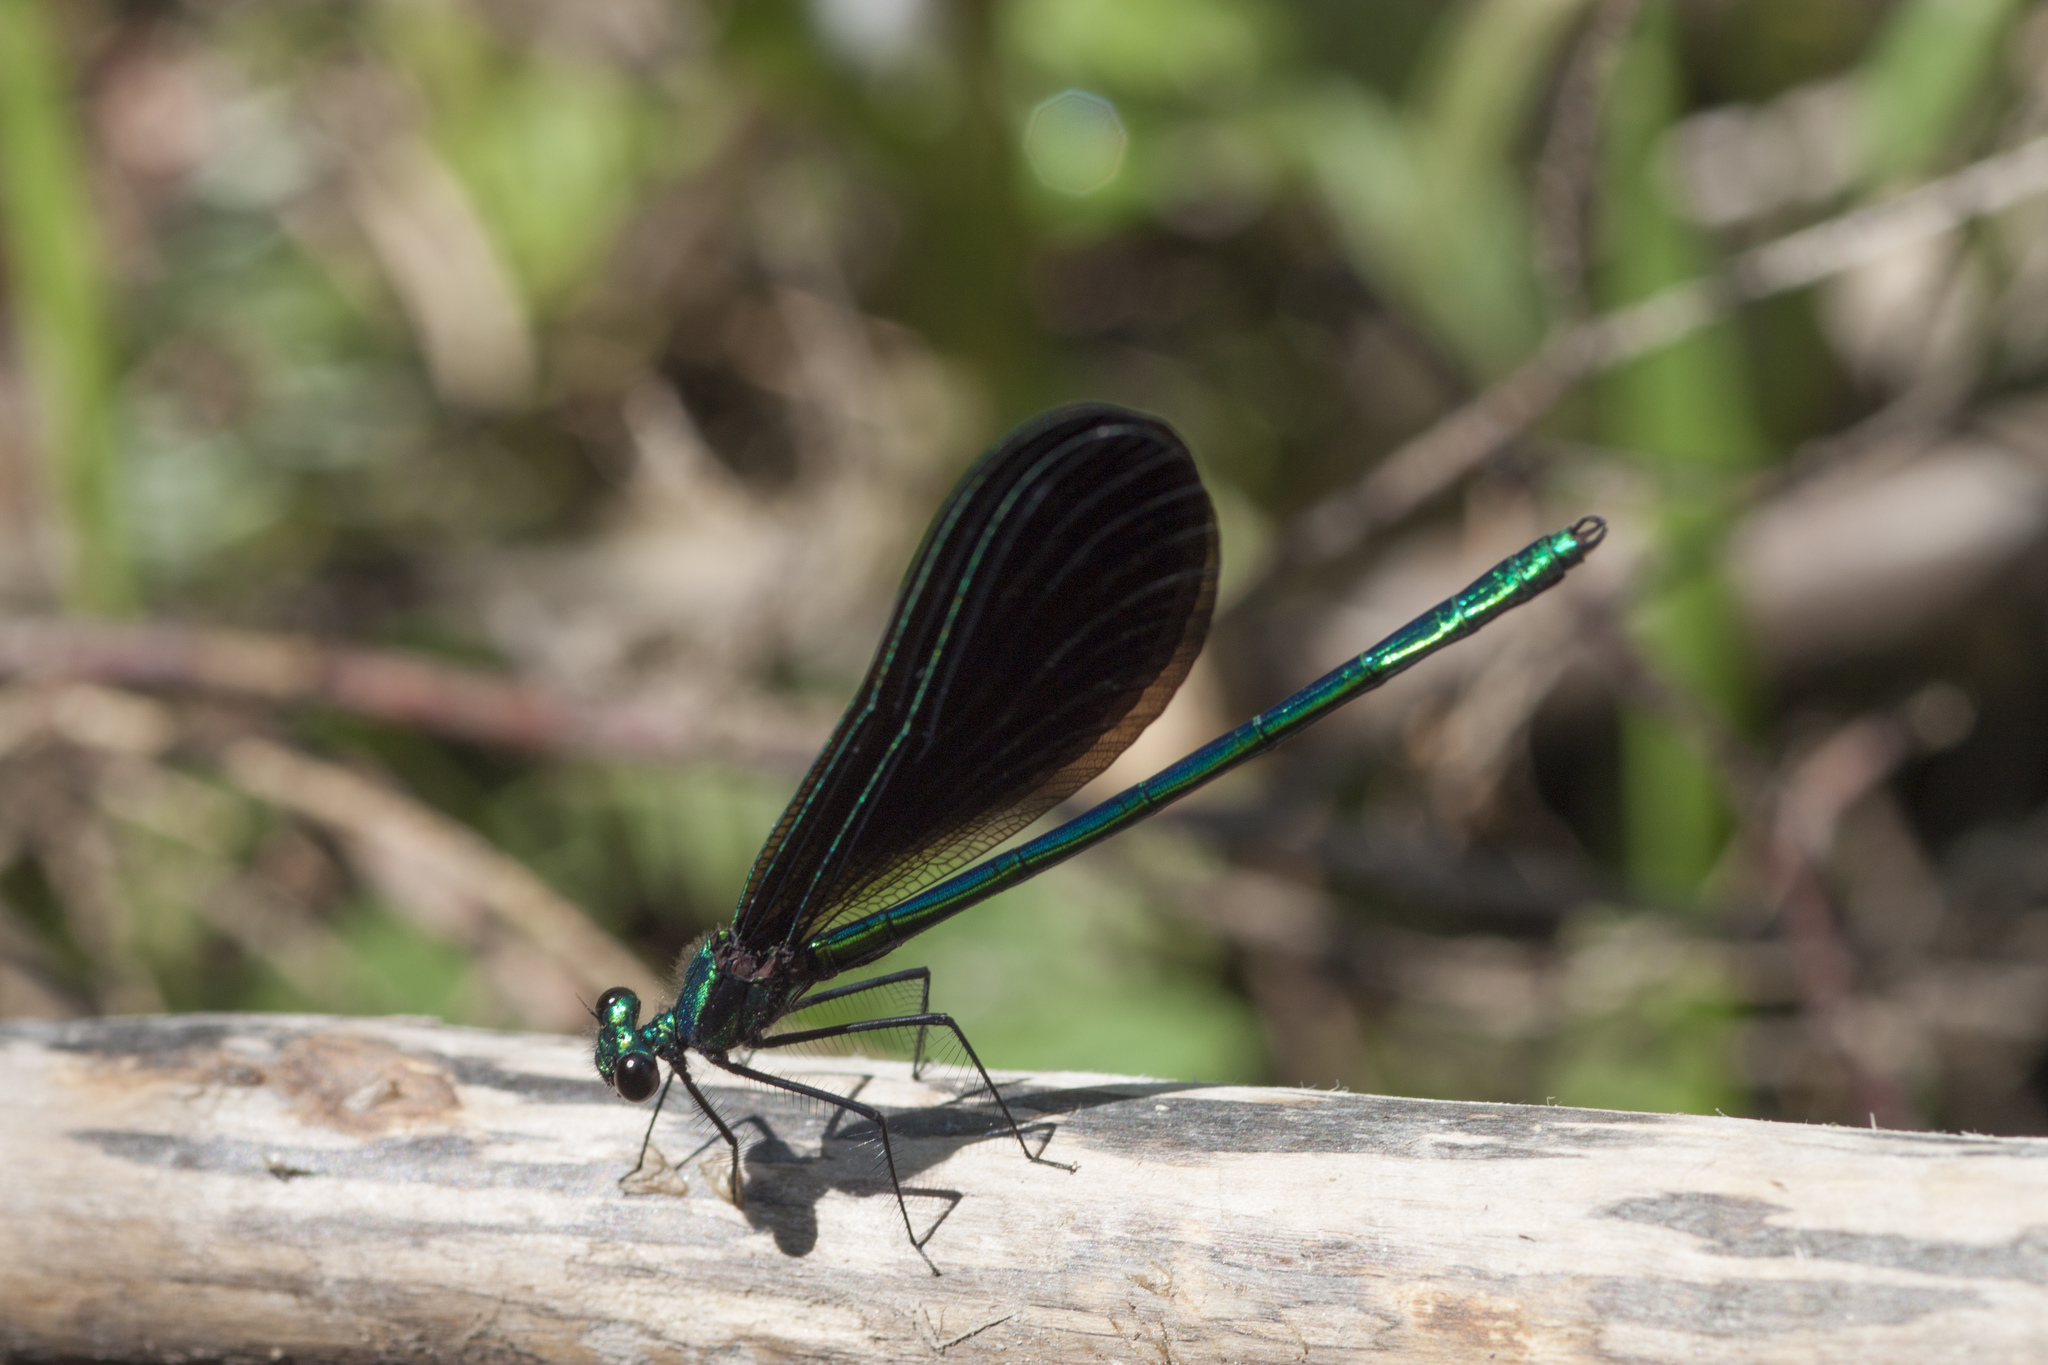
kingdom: Animalia
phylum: Arthropoda
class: Insecta
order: Odonata
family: Calopterygidae
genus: Calopteryx
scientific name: Calopteryx maculata
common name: Ebony jewelwing
